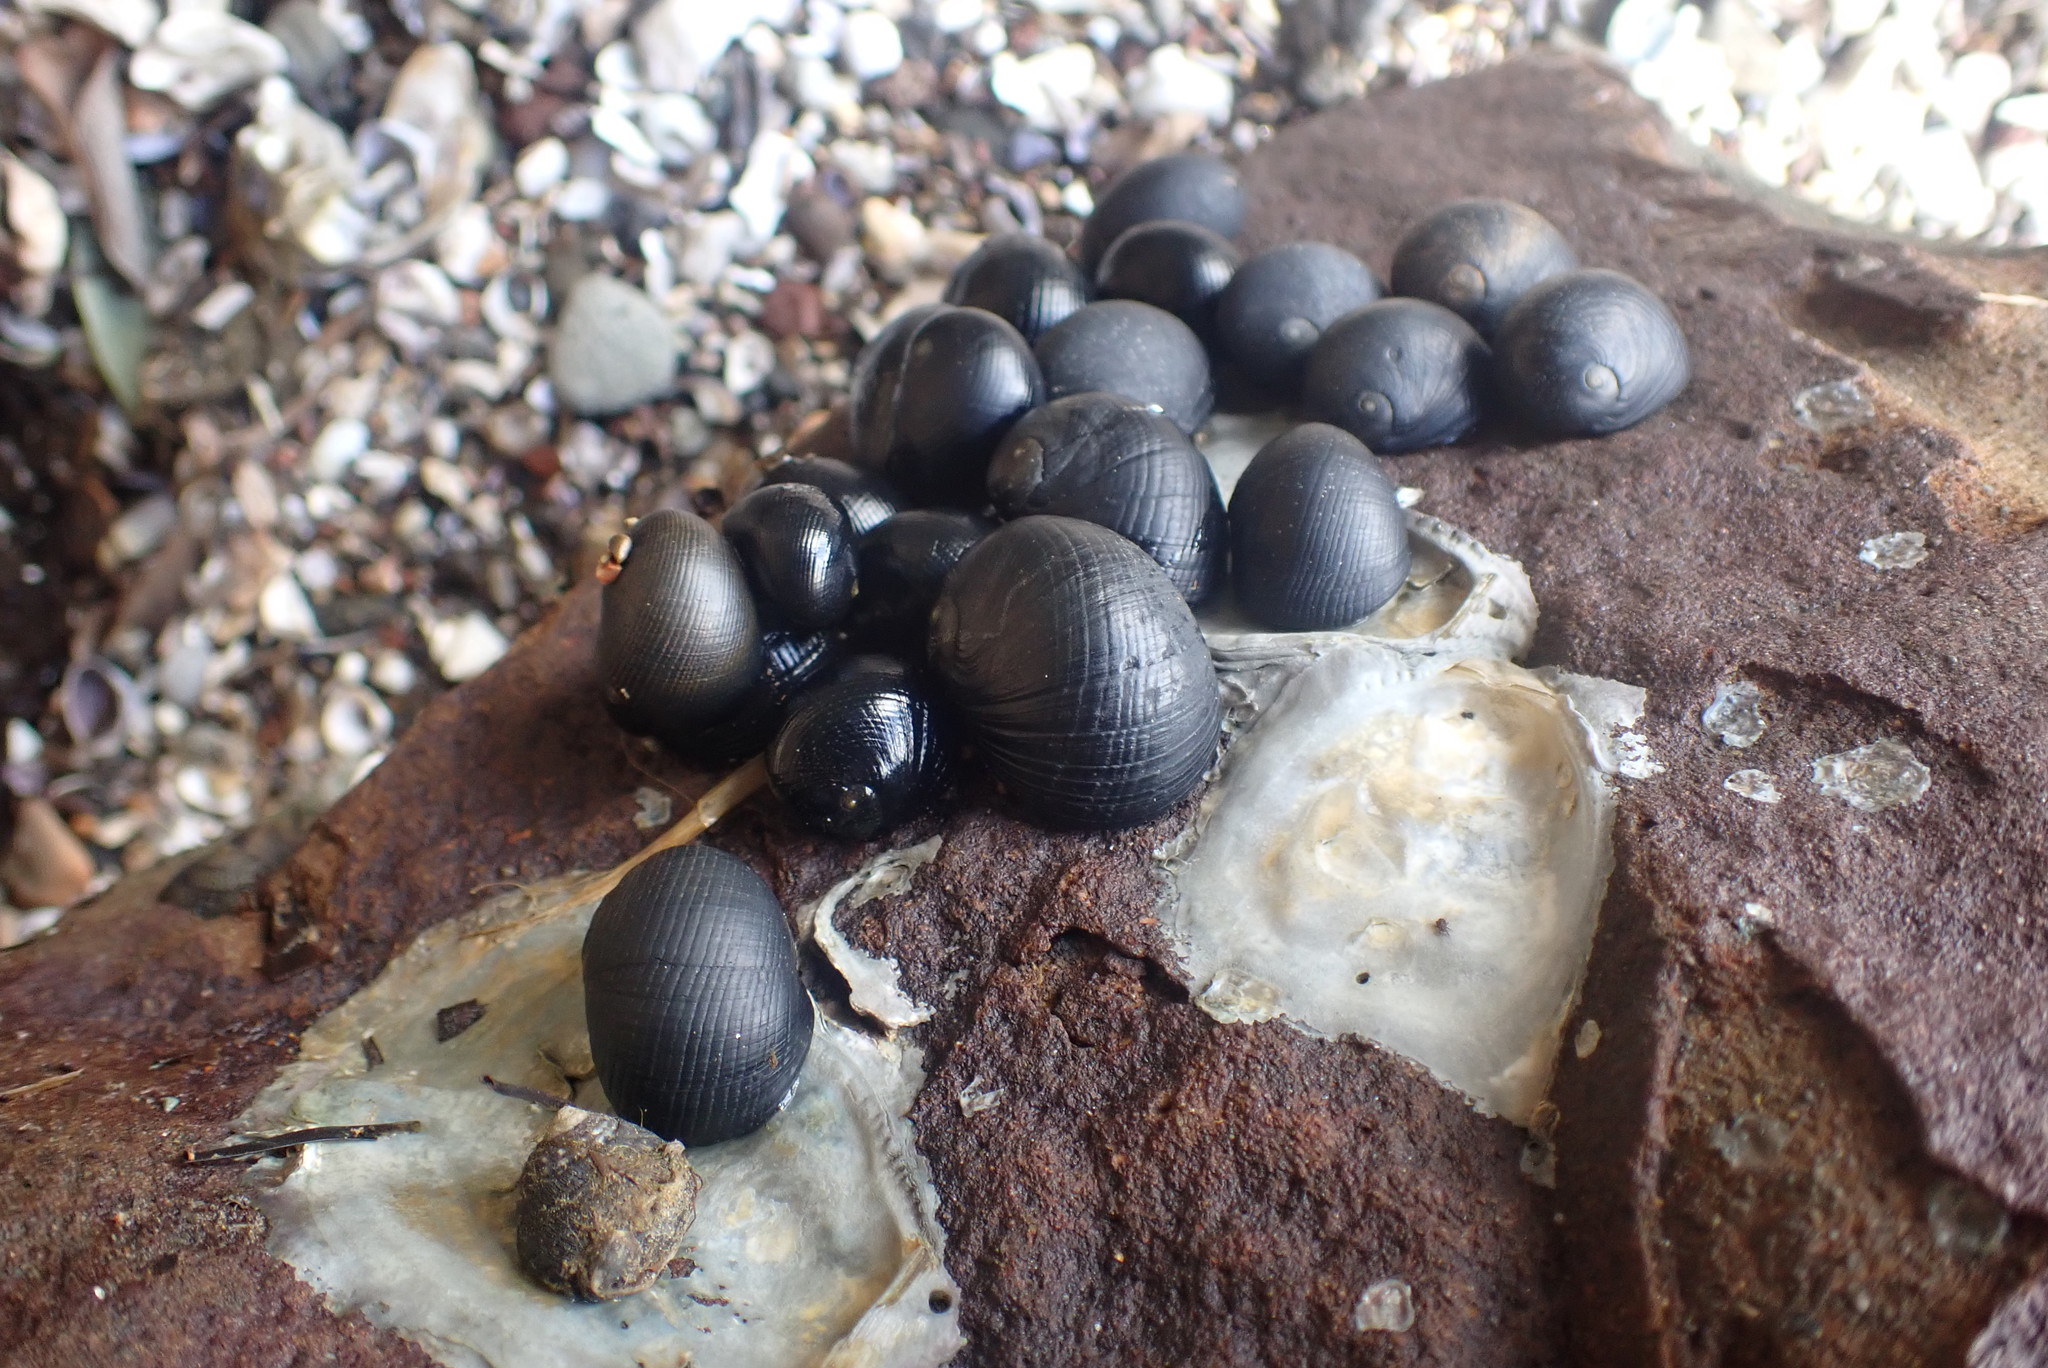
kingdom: Animalia
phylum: Mollusca
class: Gastropoda
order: Cycloneritida
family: Neritidae
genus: Nerita
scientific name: Nerita melanotragus
